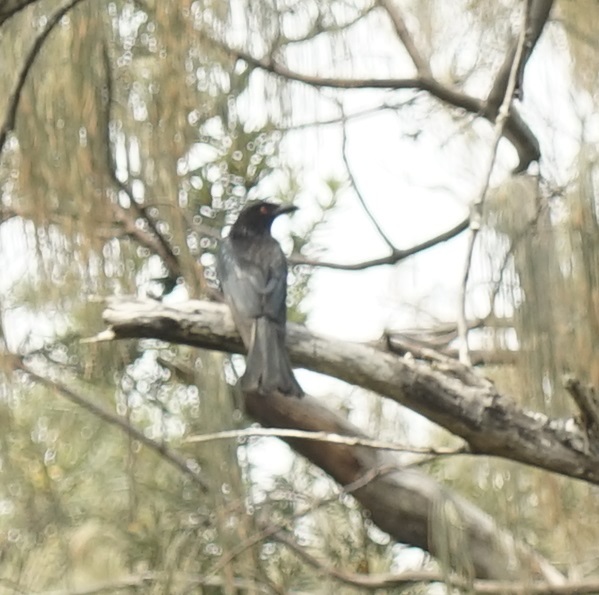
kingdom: Animalia
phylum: Chordata
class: Aves
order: Passeriformes
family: Dicruridae
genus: Dicrurus
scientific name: Dicrurus bracteatus
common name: Spangled drongo
